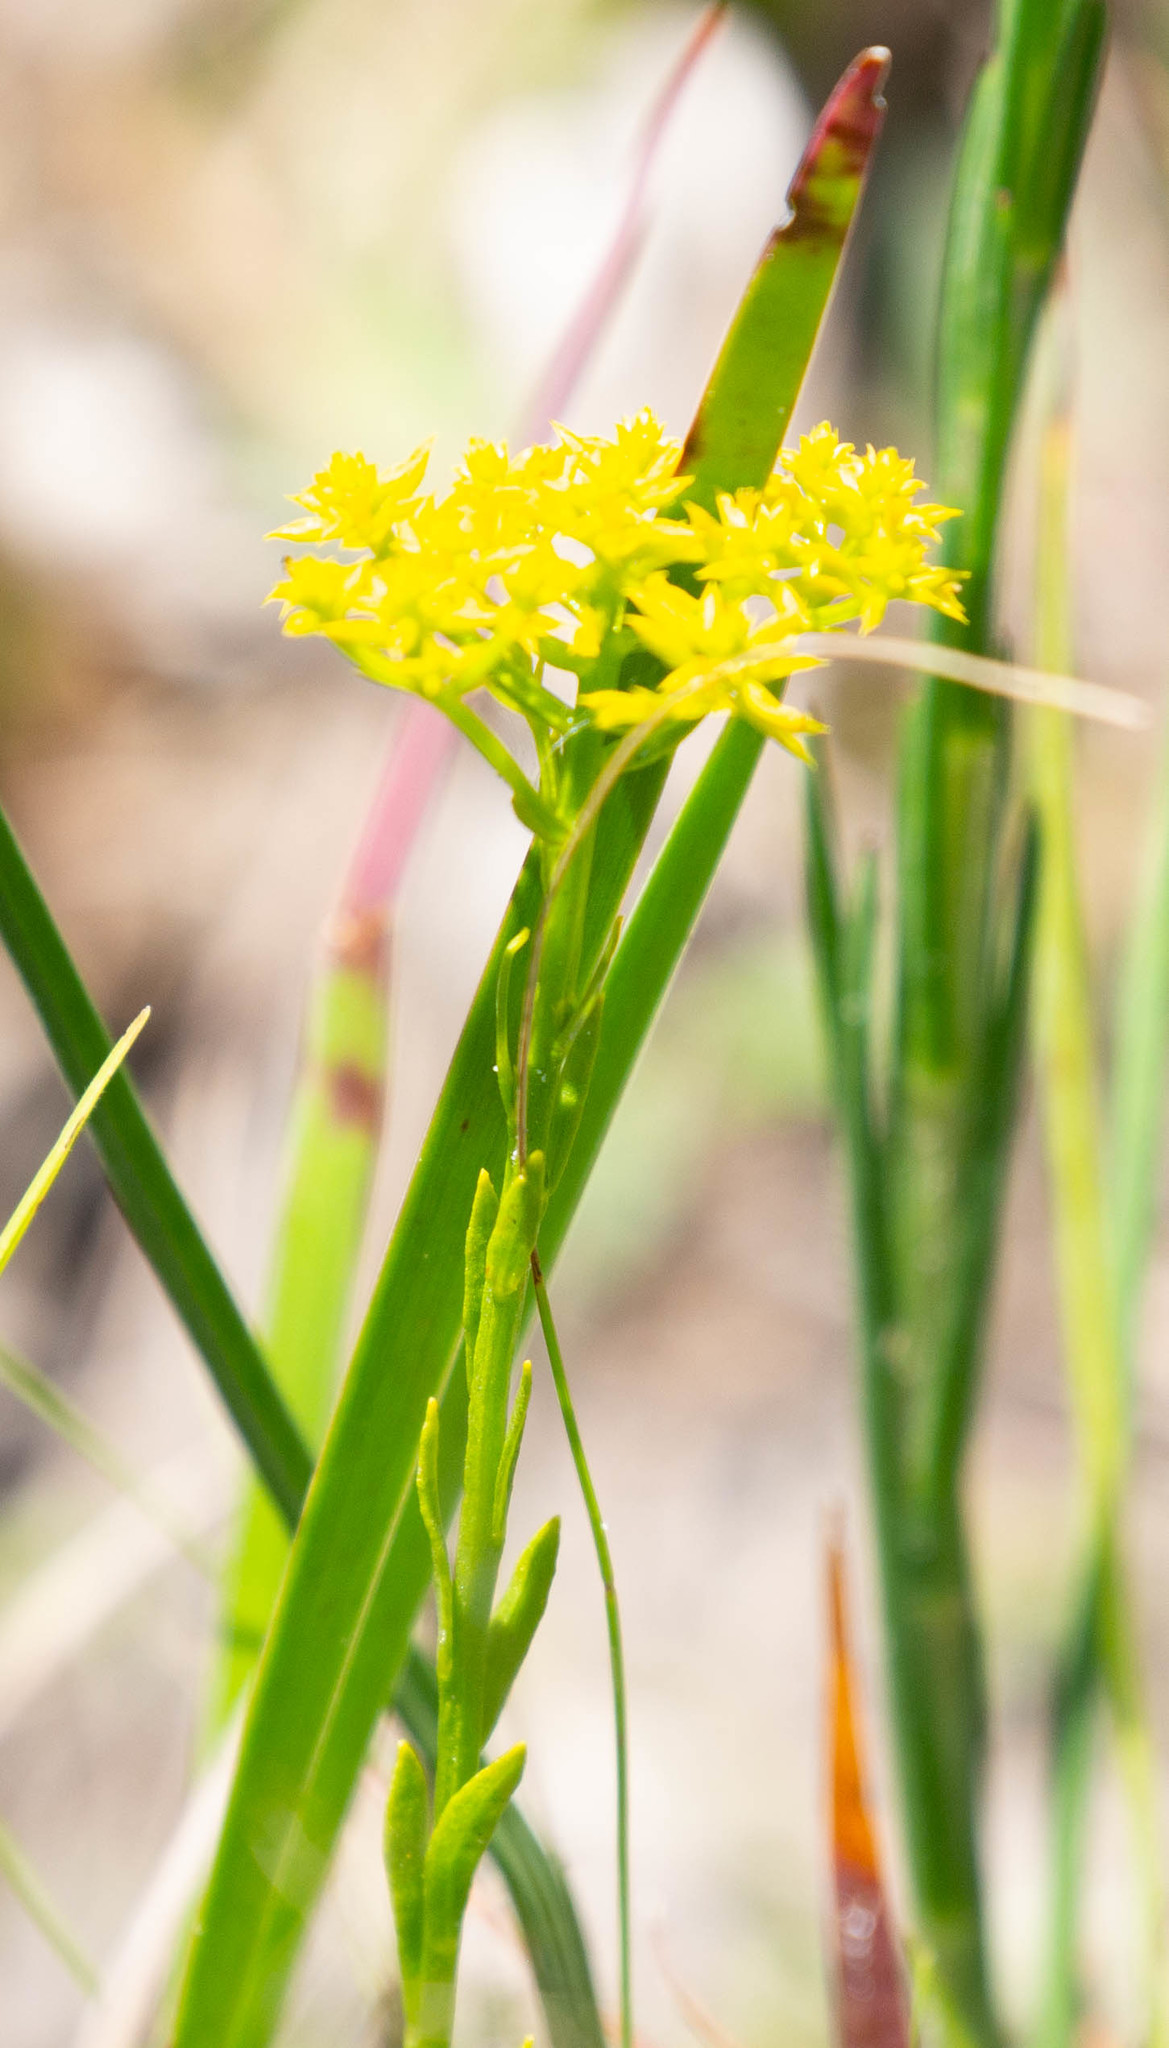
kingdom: Plantae
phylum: Tracheophyta
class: Magnoliopsida
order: Fabales
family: Polygalaceae
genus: Polygala
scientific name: Polygala ramosa
